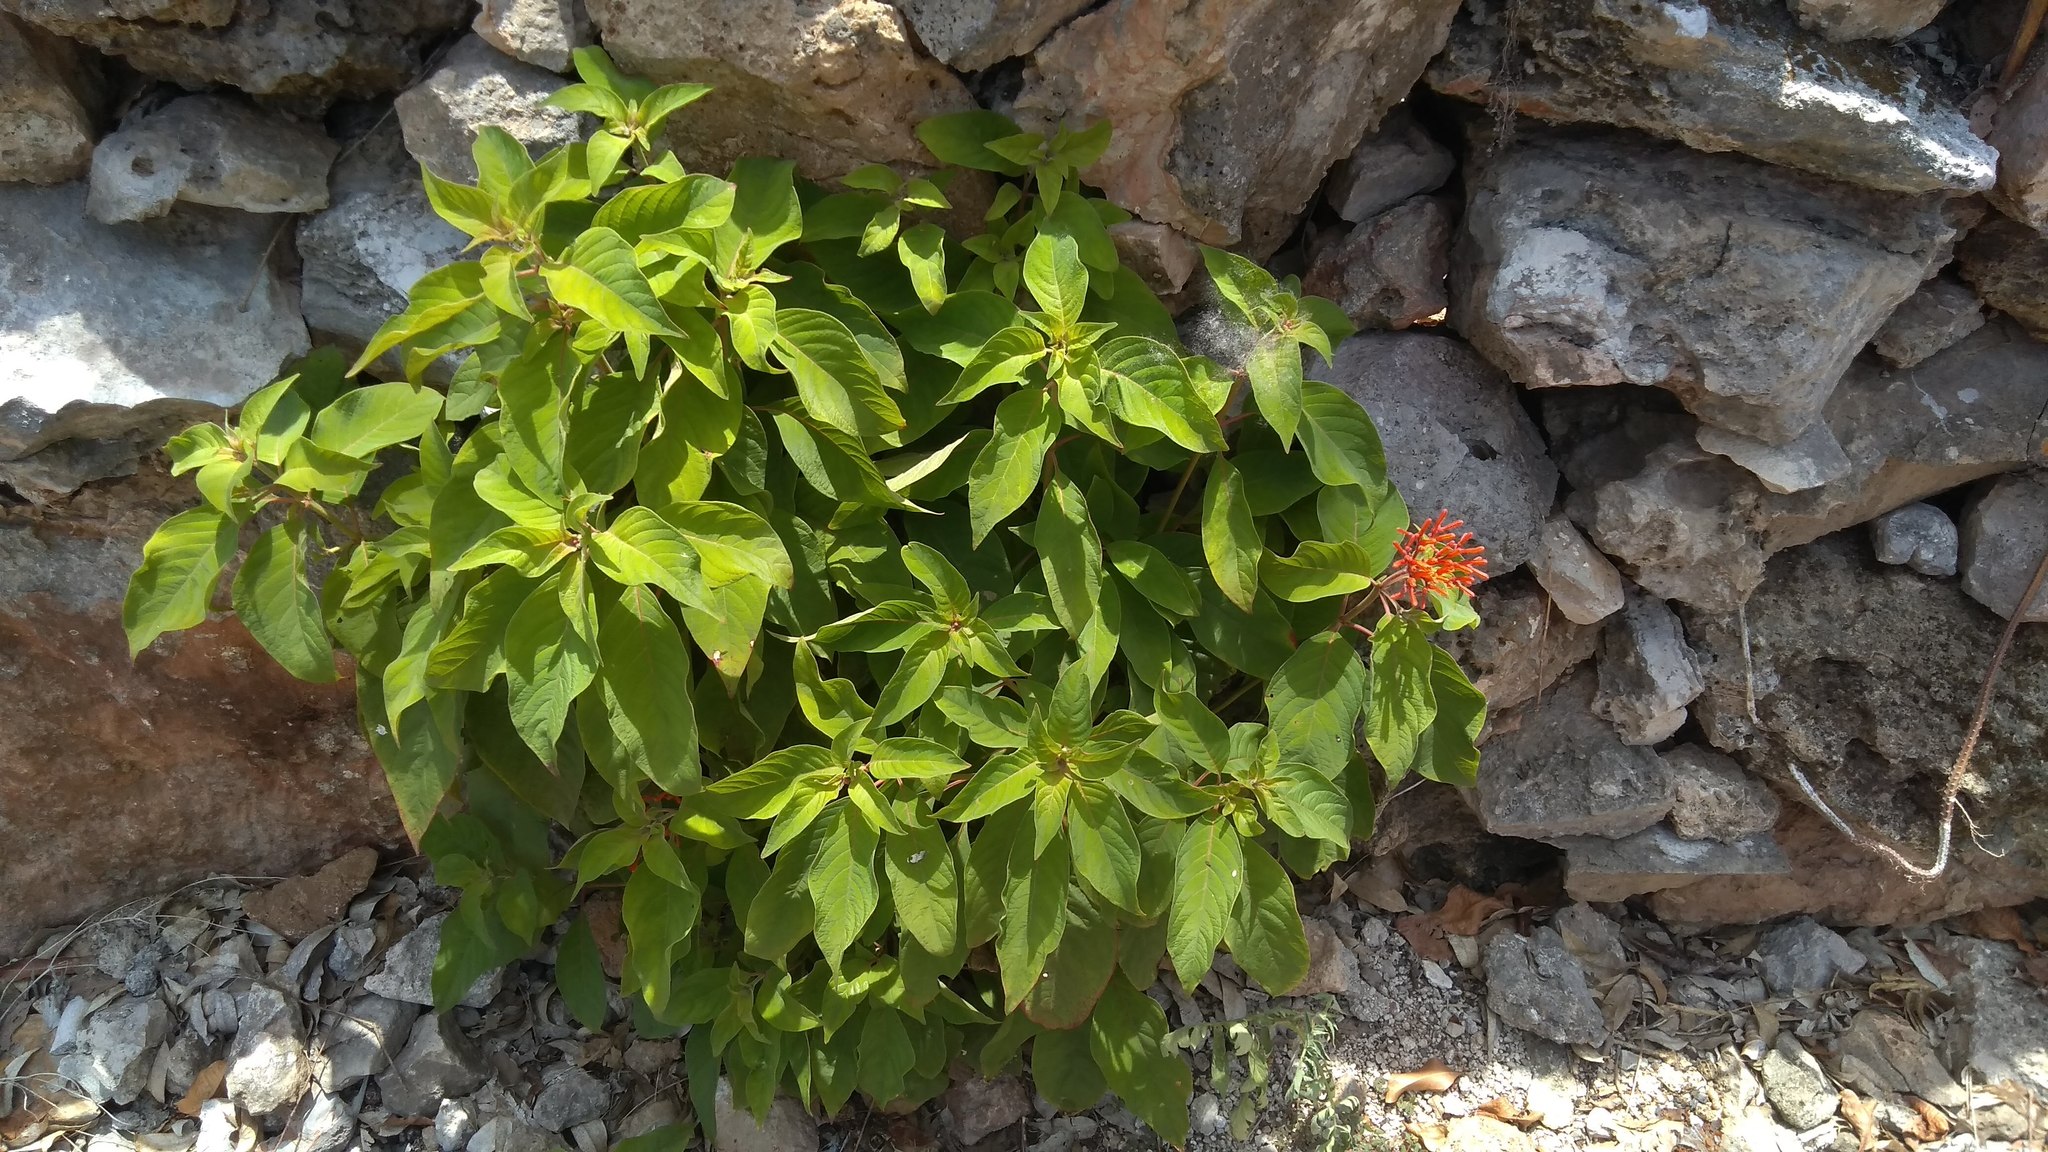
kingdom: Plantae
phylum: Tracheophyta
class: Magnoliopsida
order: Gentianales
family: Rubiaceae
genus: Hamelia
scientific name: Hamelia patens
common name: Redhead
